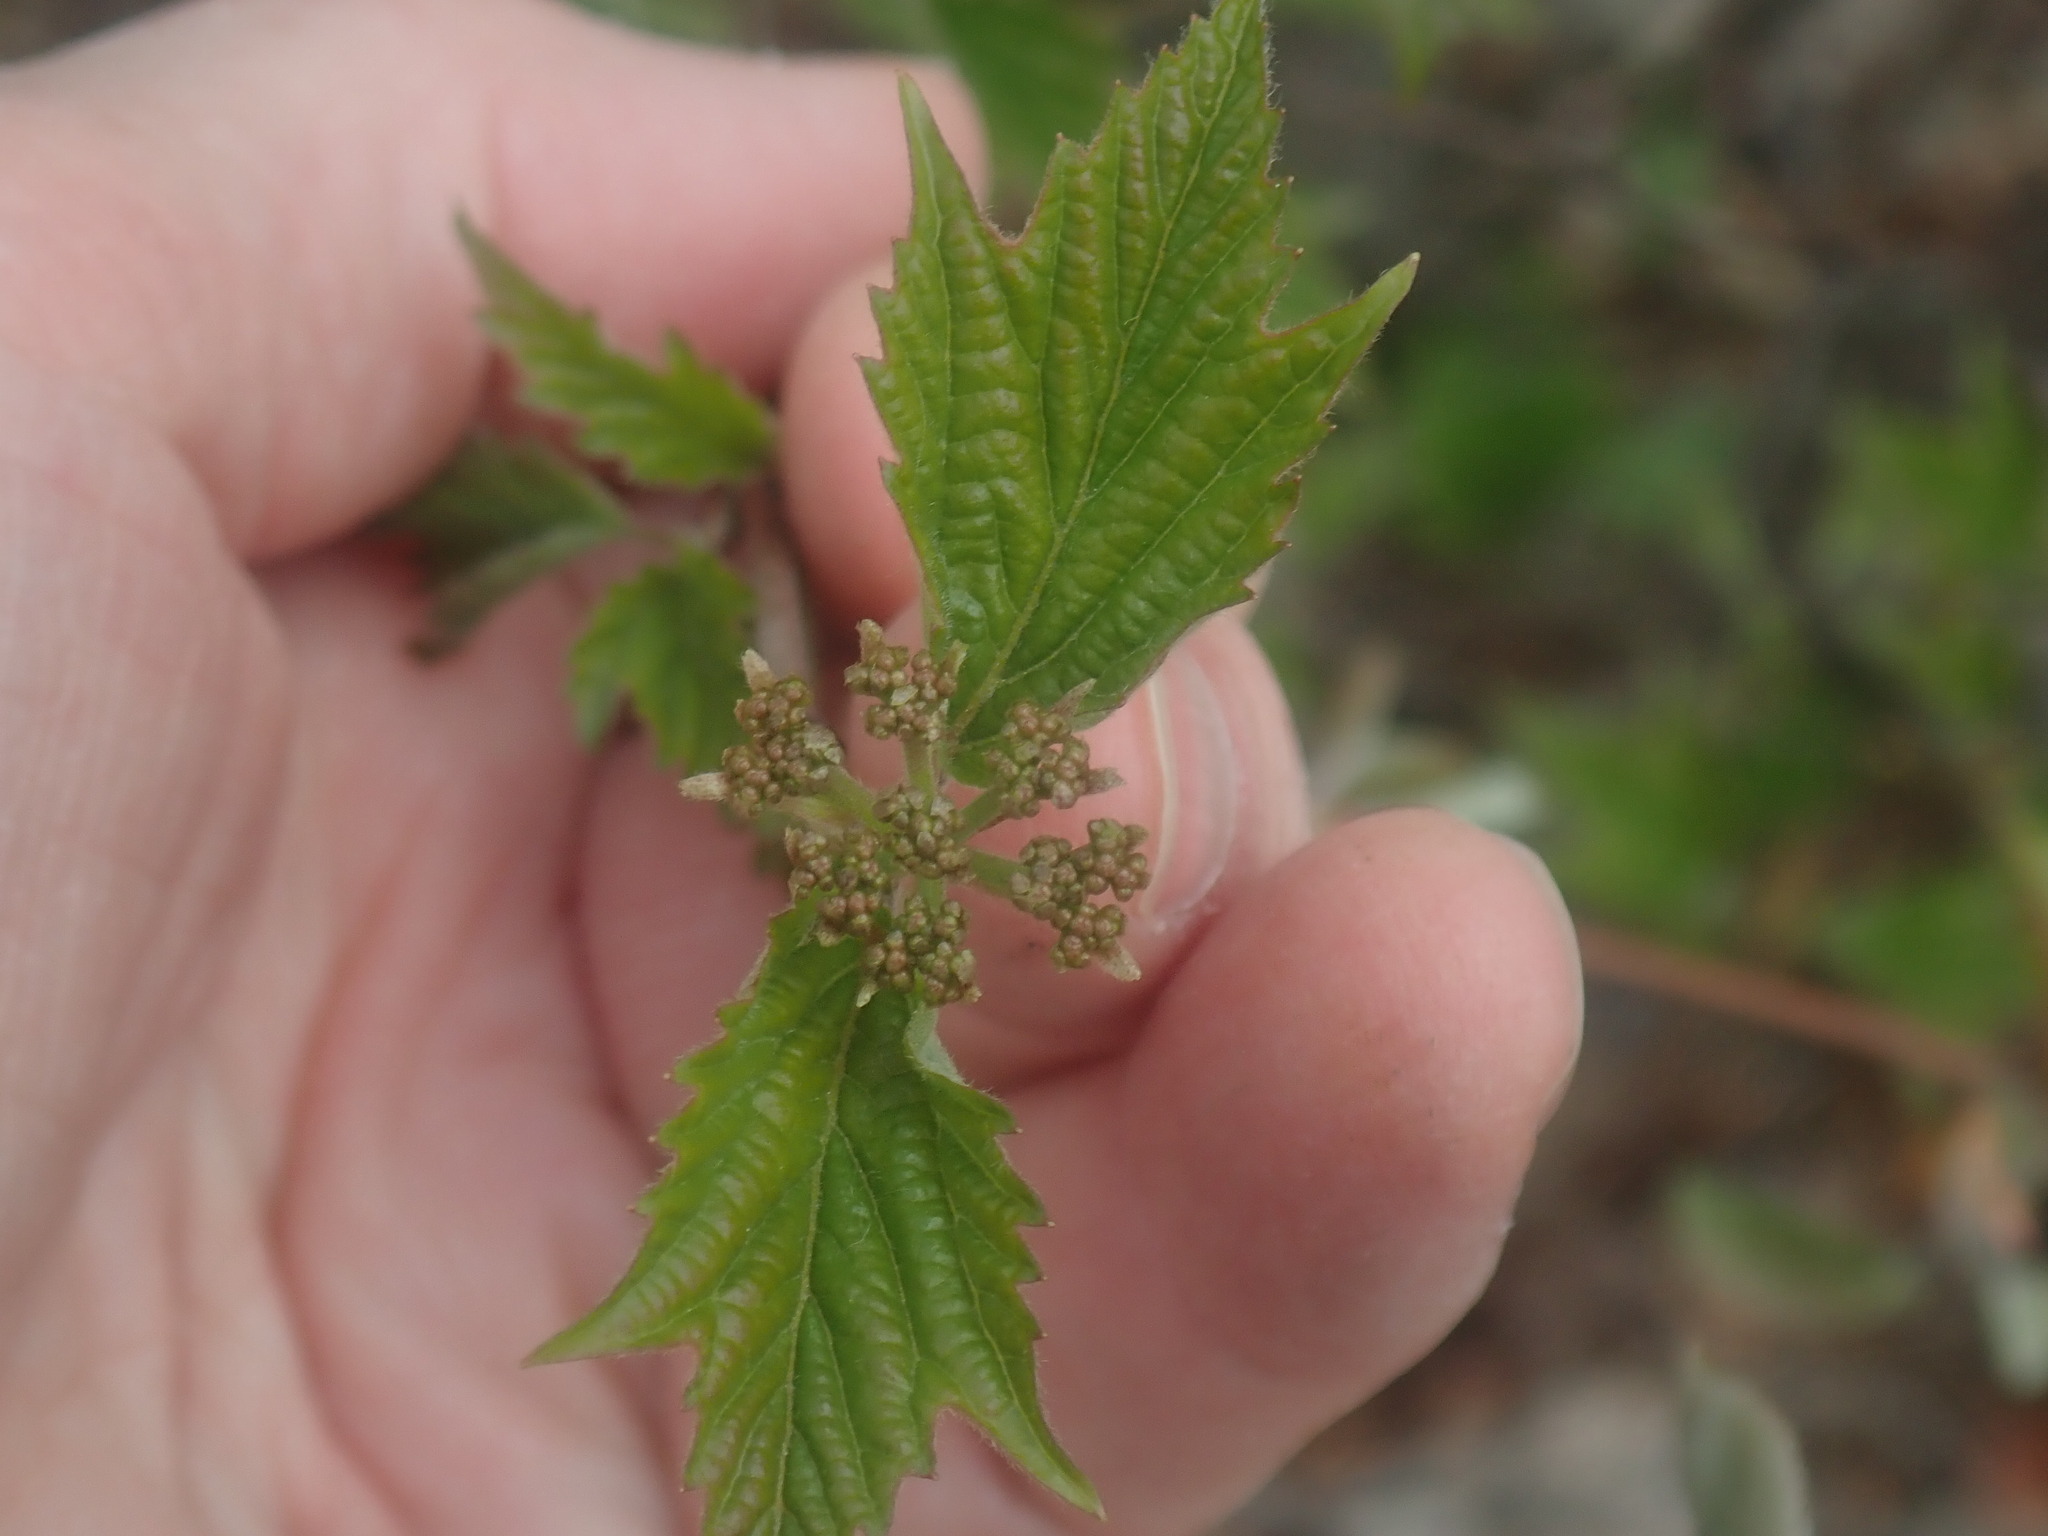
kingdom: Plantae
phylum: Tracheophyta
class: Magnoliopsida
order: Dipsacales
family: Viburnaceae
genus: Viburnum
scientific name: Viburnum acerifolium
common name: Dockmackie
